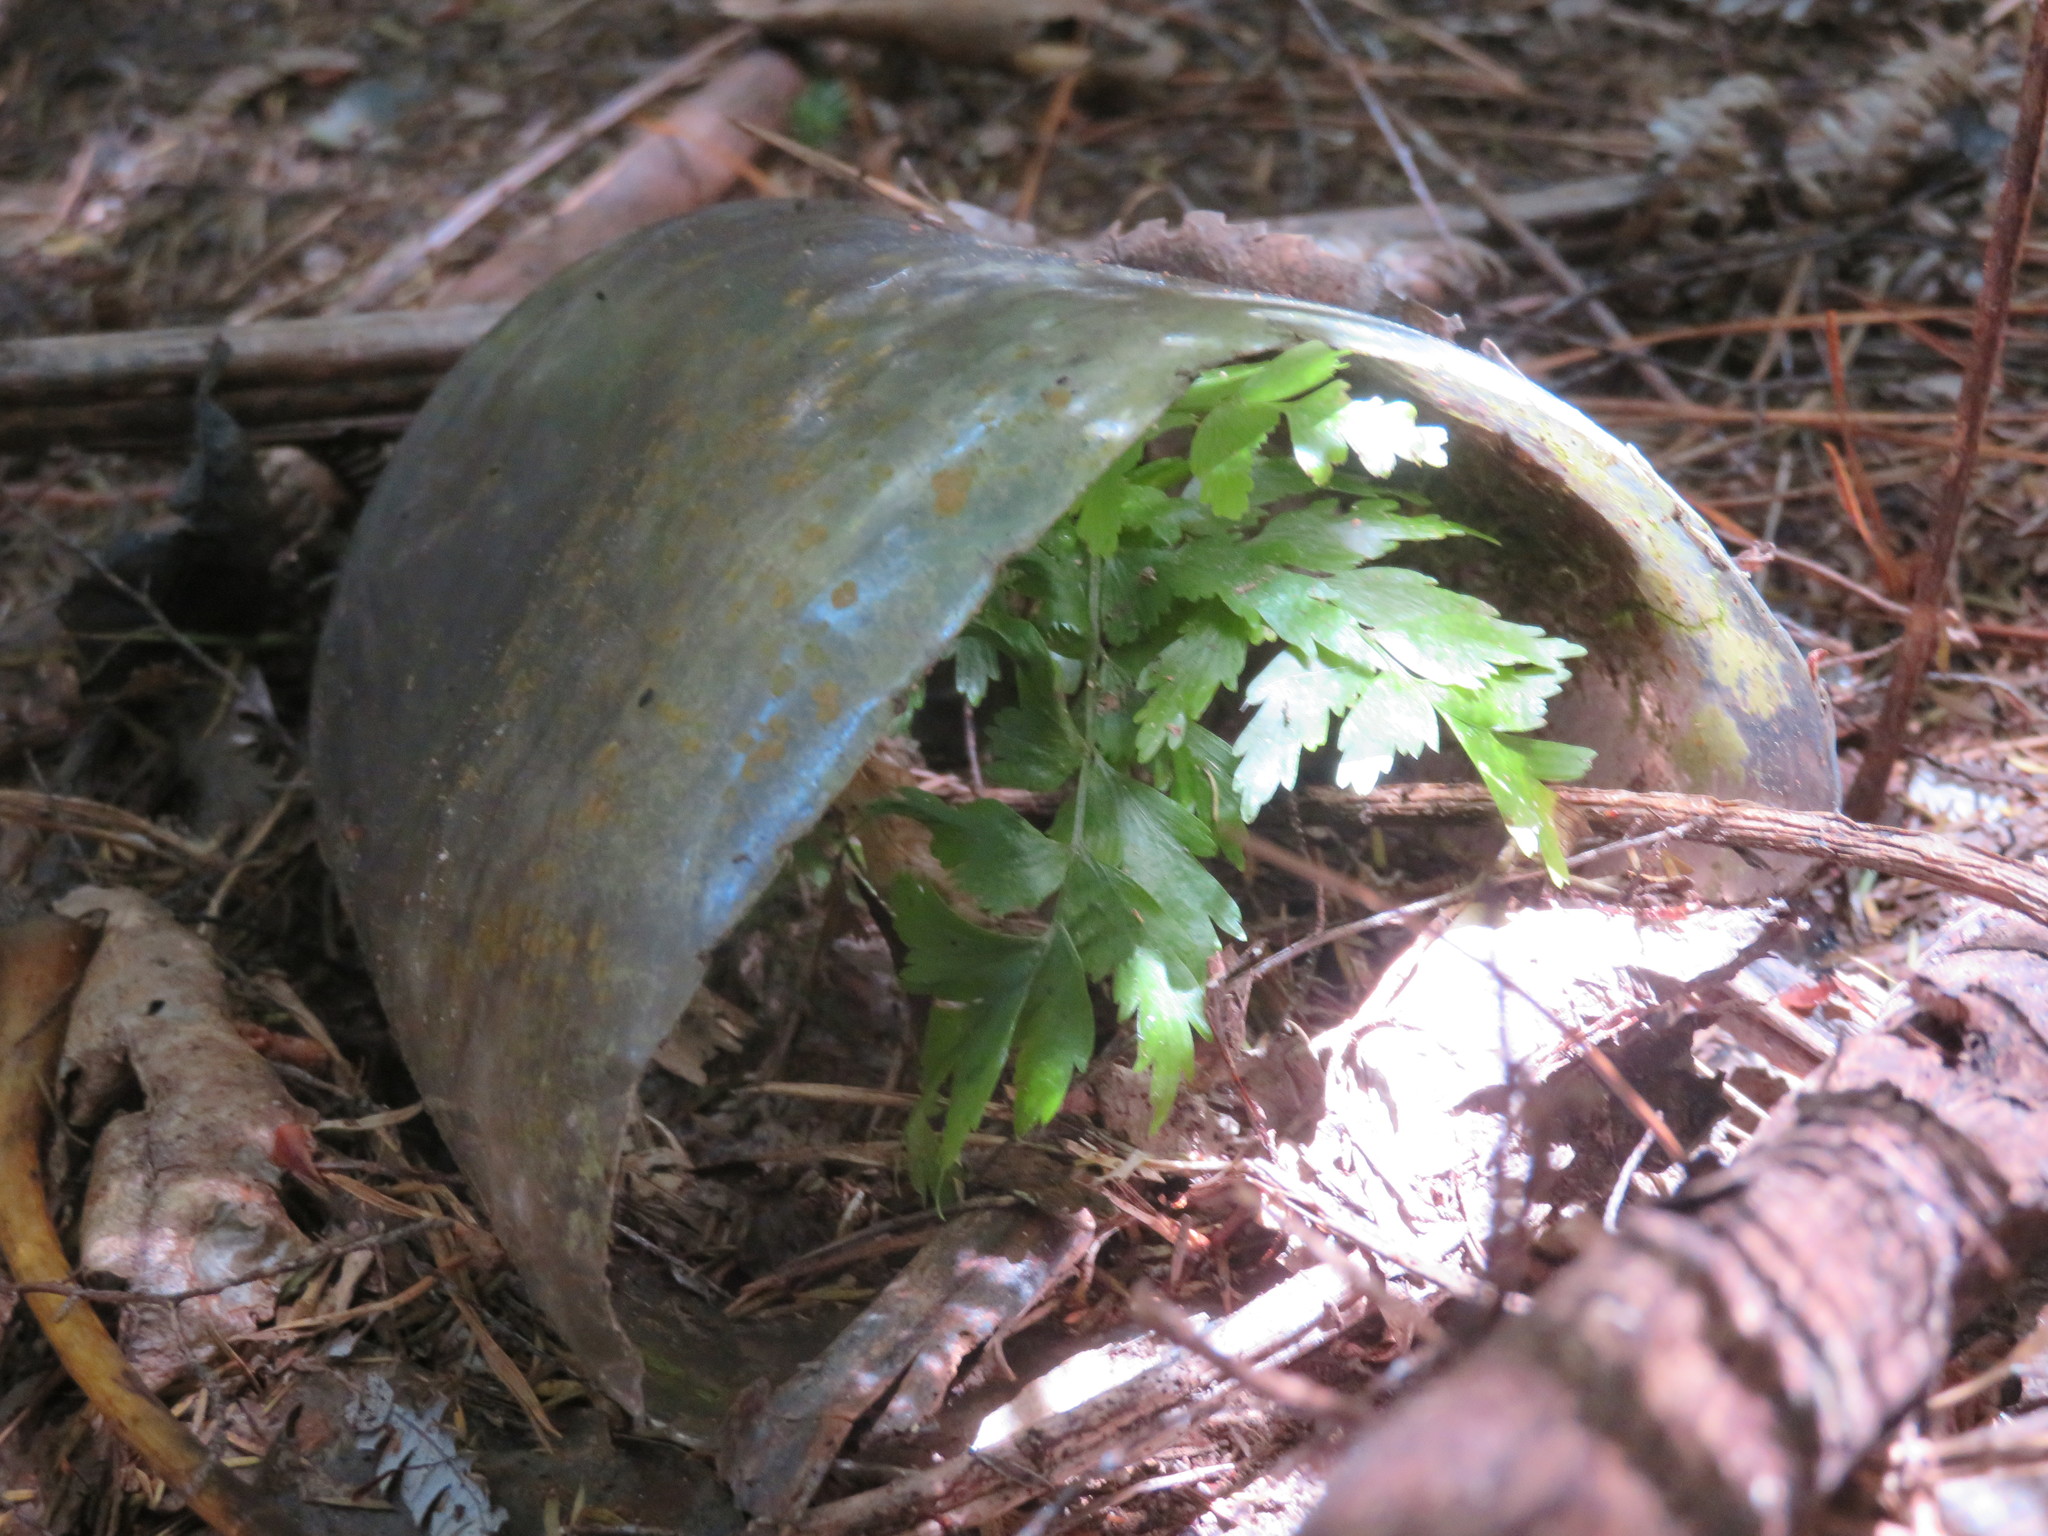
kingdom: Plantae
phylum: Tracheophyta
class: Polypodiopsida
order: Polypodiales
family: Aspleniaceae
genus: Asplenium
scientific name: Asplenium polyodon
